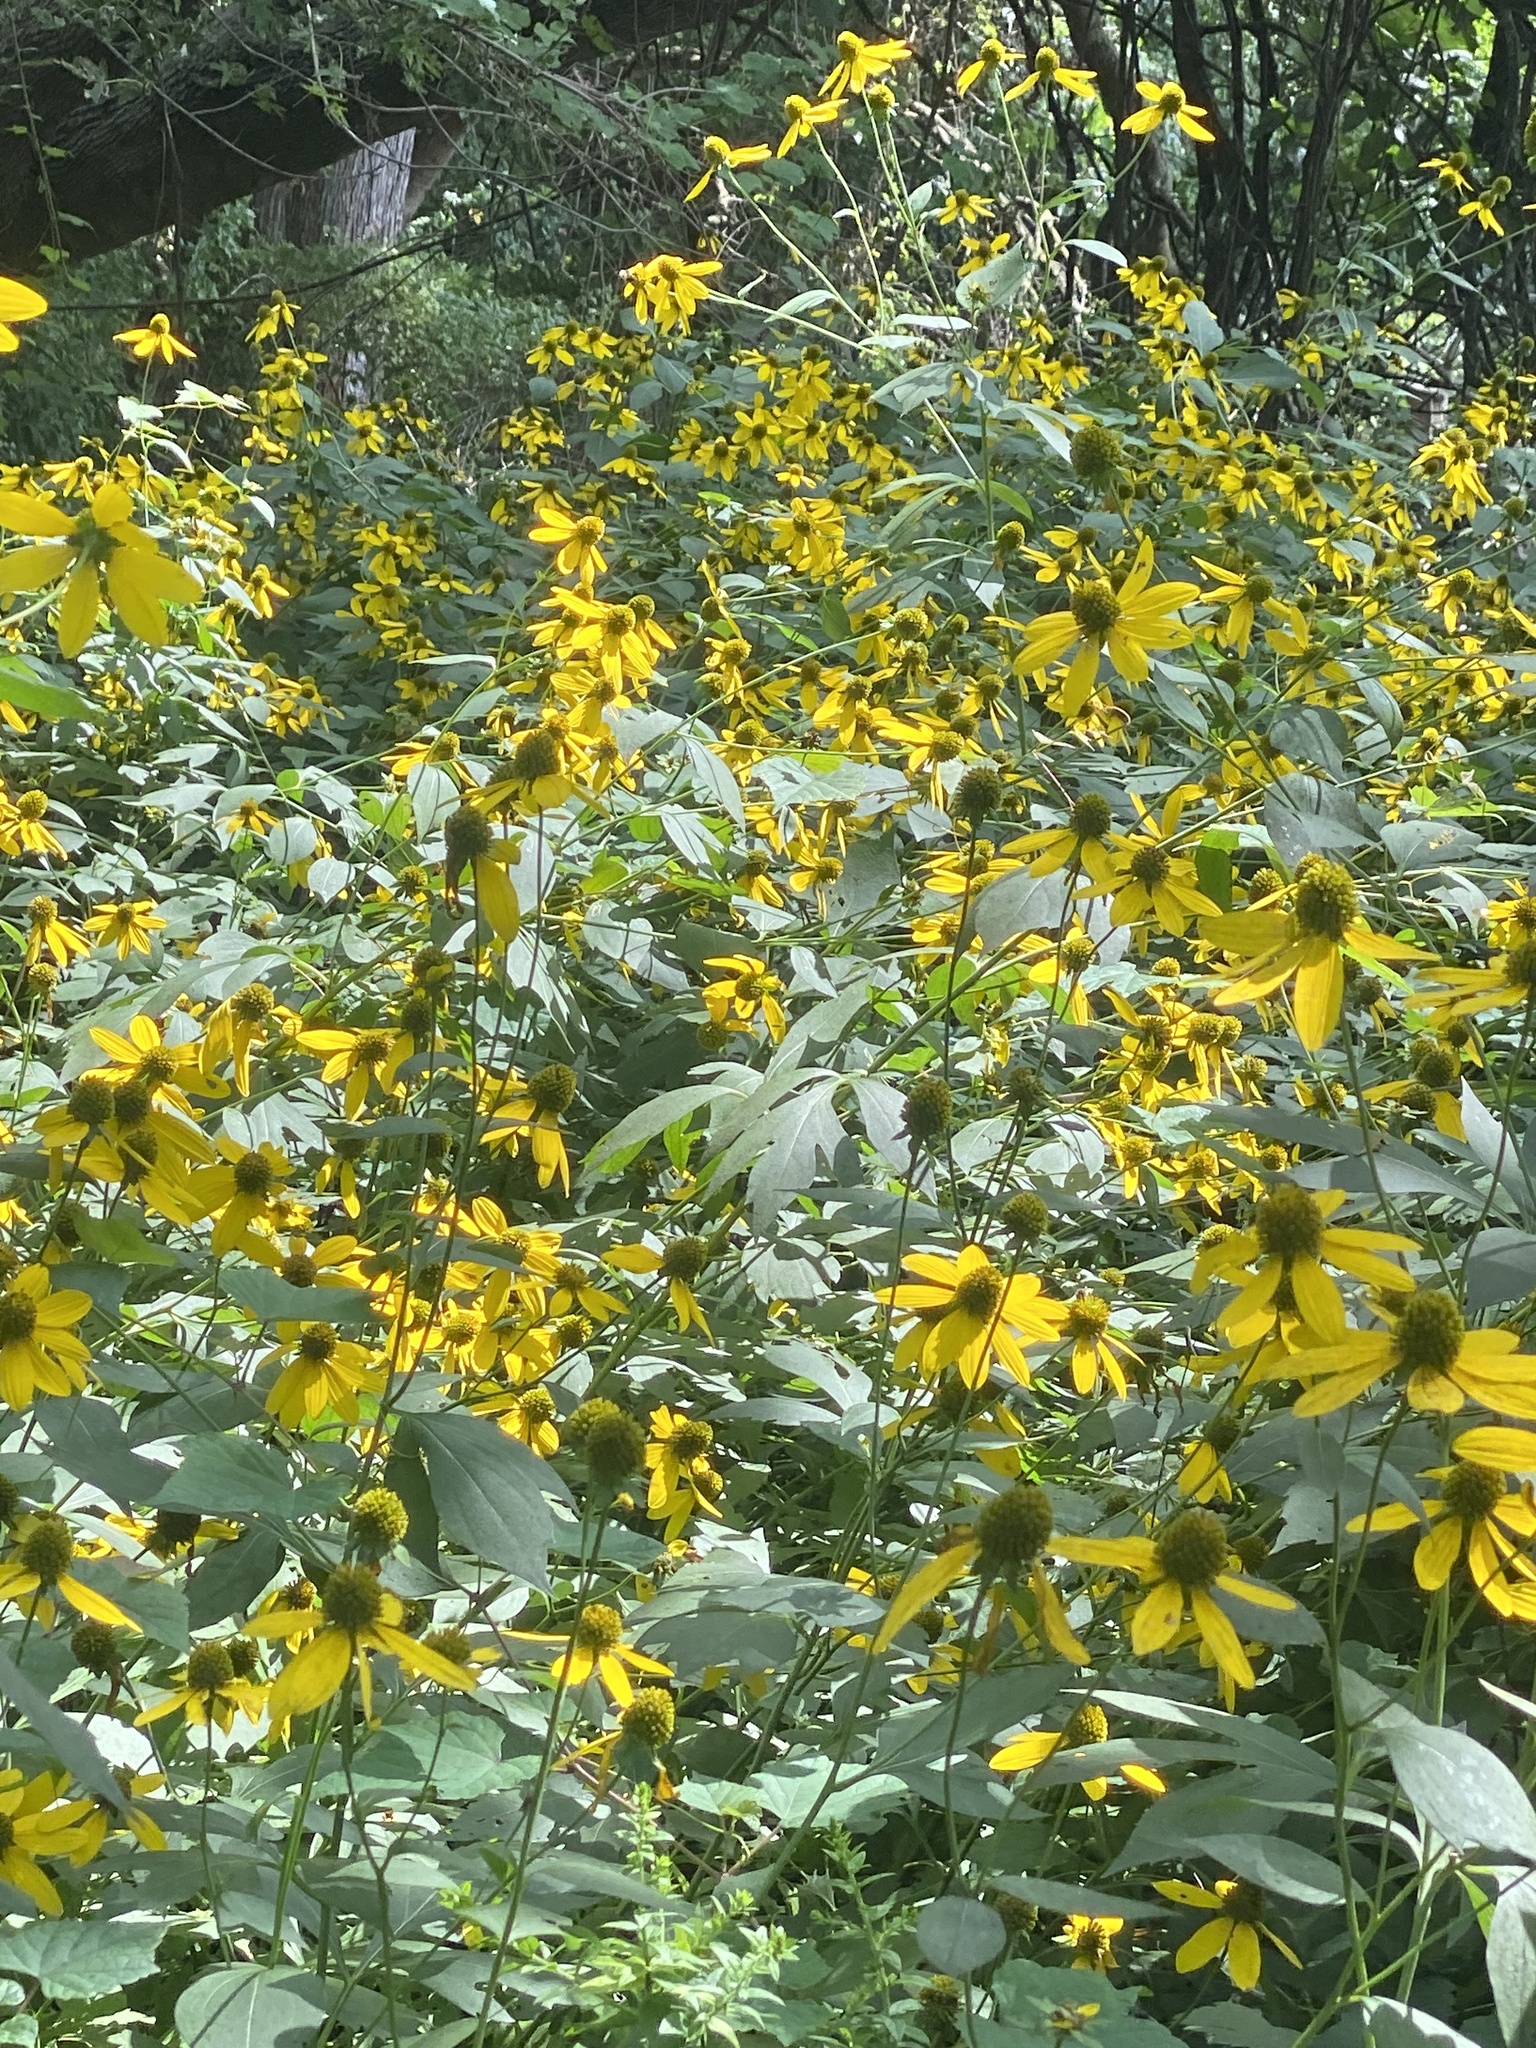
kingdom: Plantae
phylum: Tracheophyta
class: Magnoliopsida
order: Asterales
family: Asteraceae
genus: Rudbeckia
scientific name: Rudbeckia laciniata
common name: Coneflower
